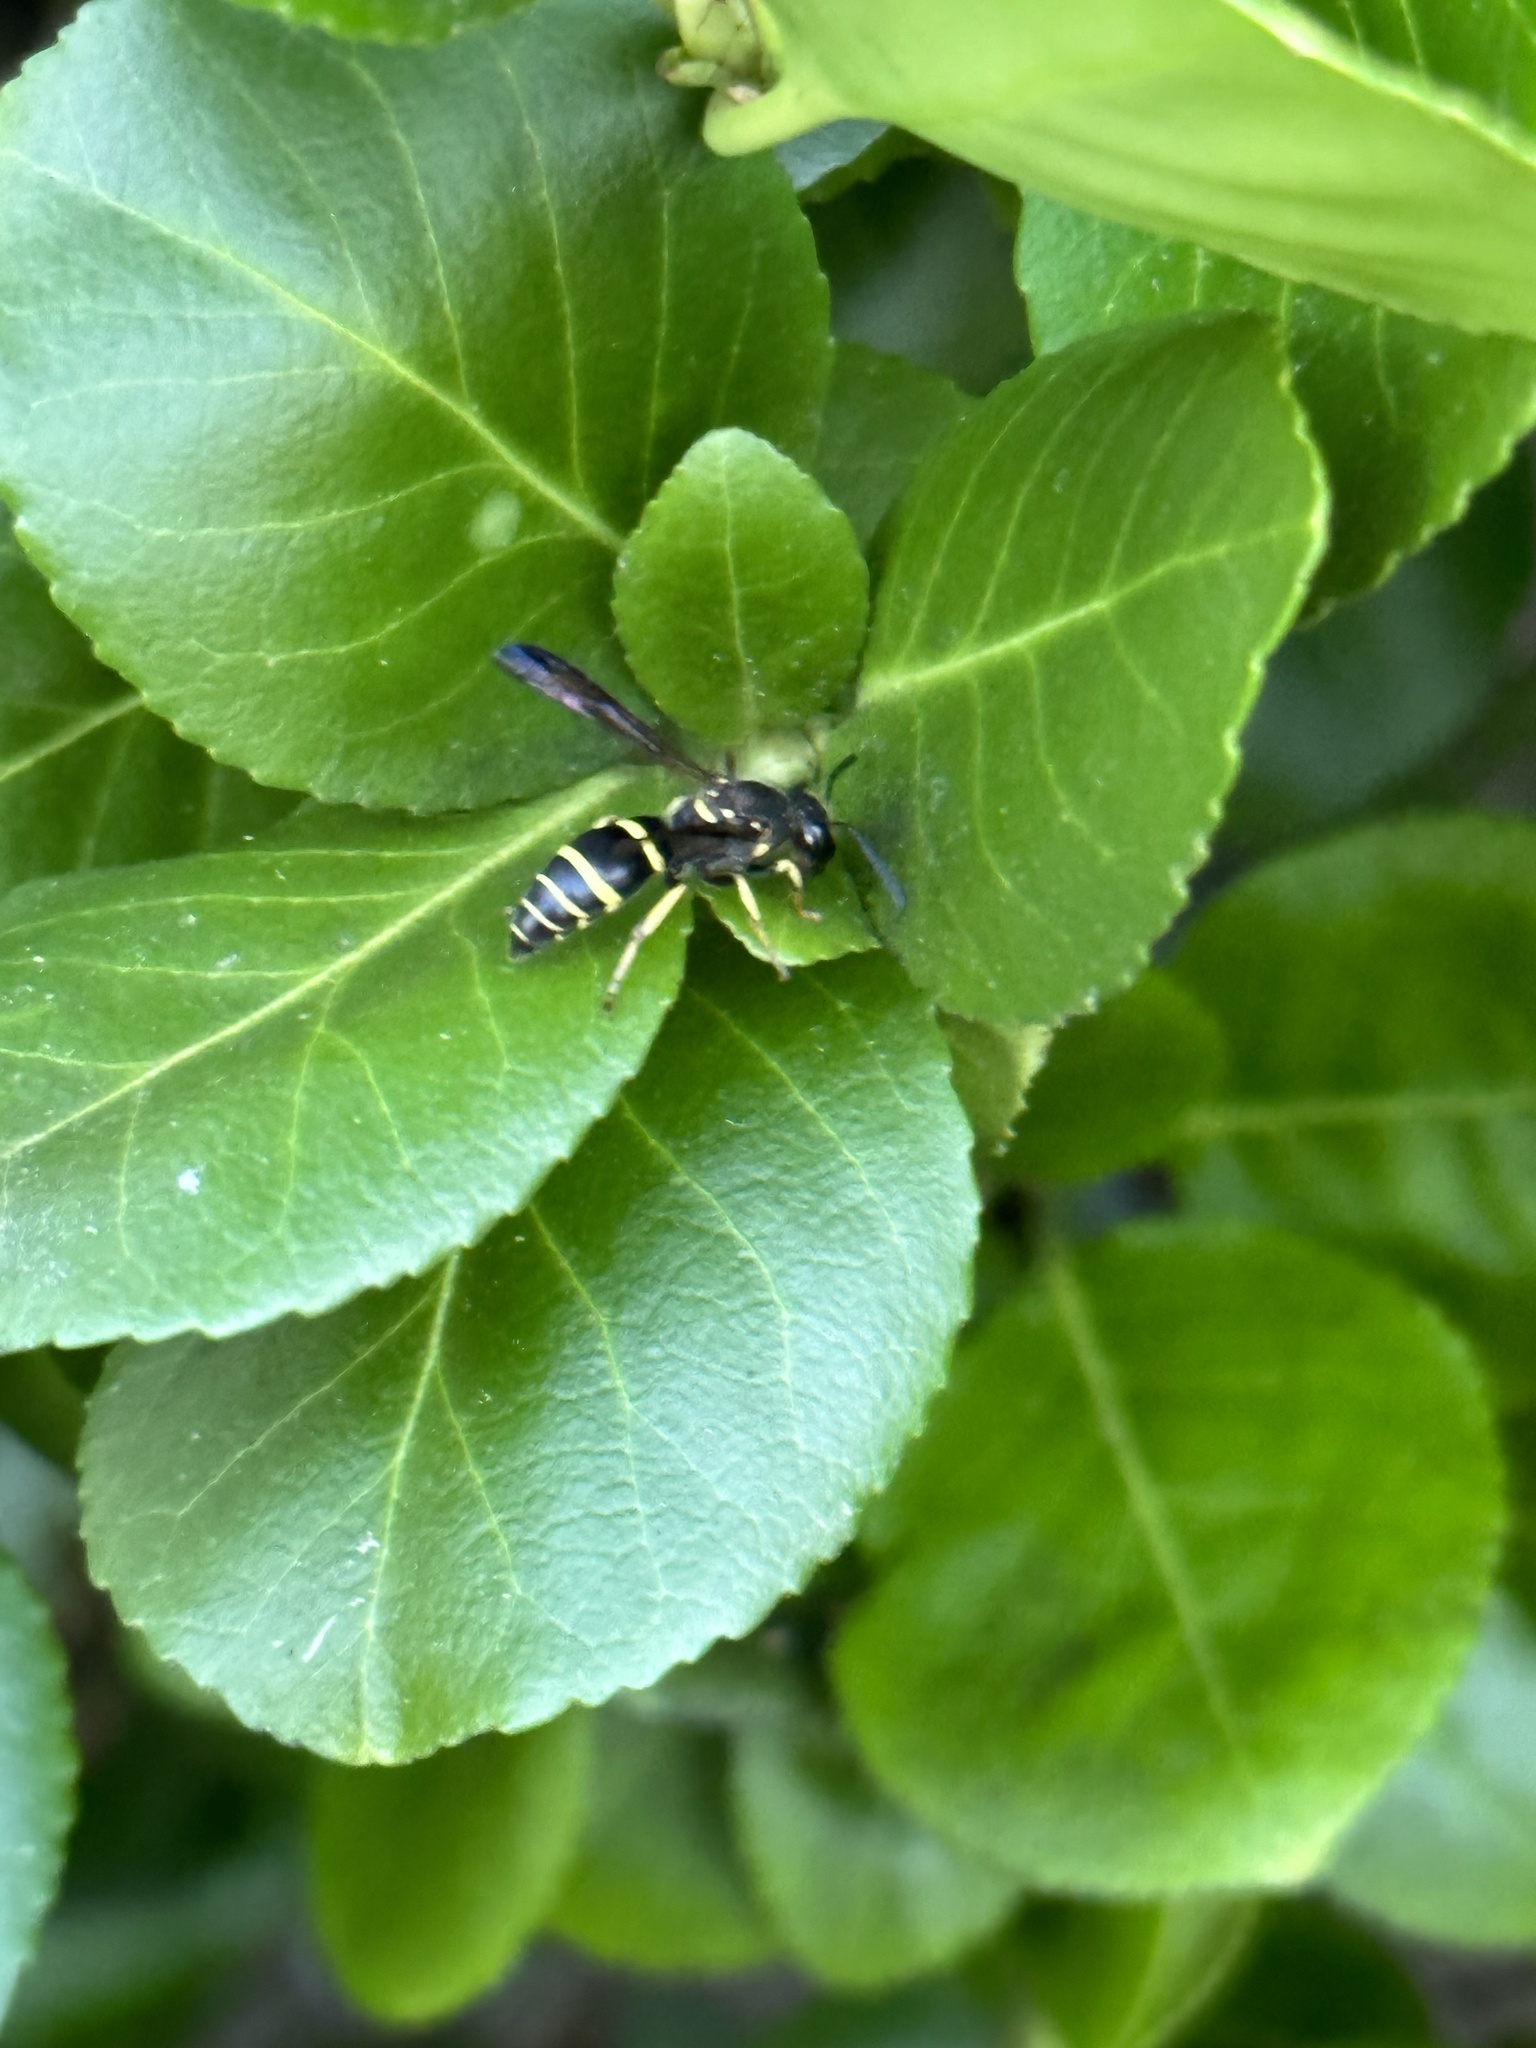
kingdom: Animalia
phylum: Arthropoda
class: Insecta
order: Hymenoptera
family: Vespidae
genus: Ancistrocerus
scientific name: Ancistrocerus adiabatus
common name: Bramble mason wasp
